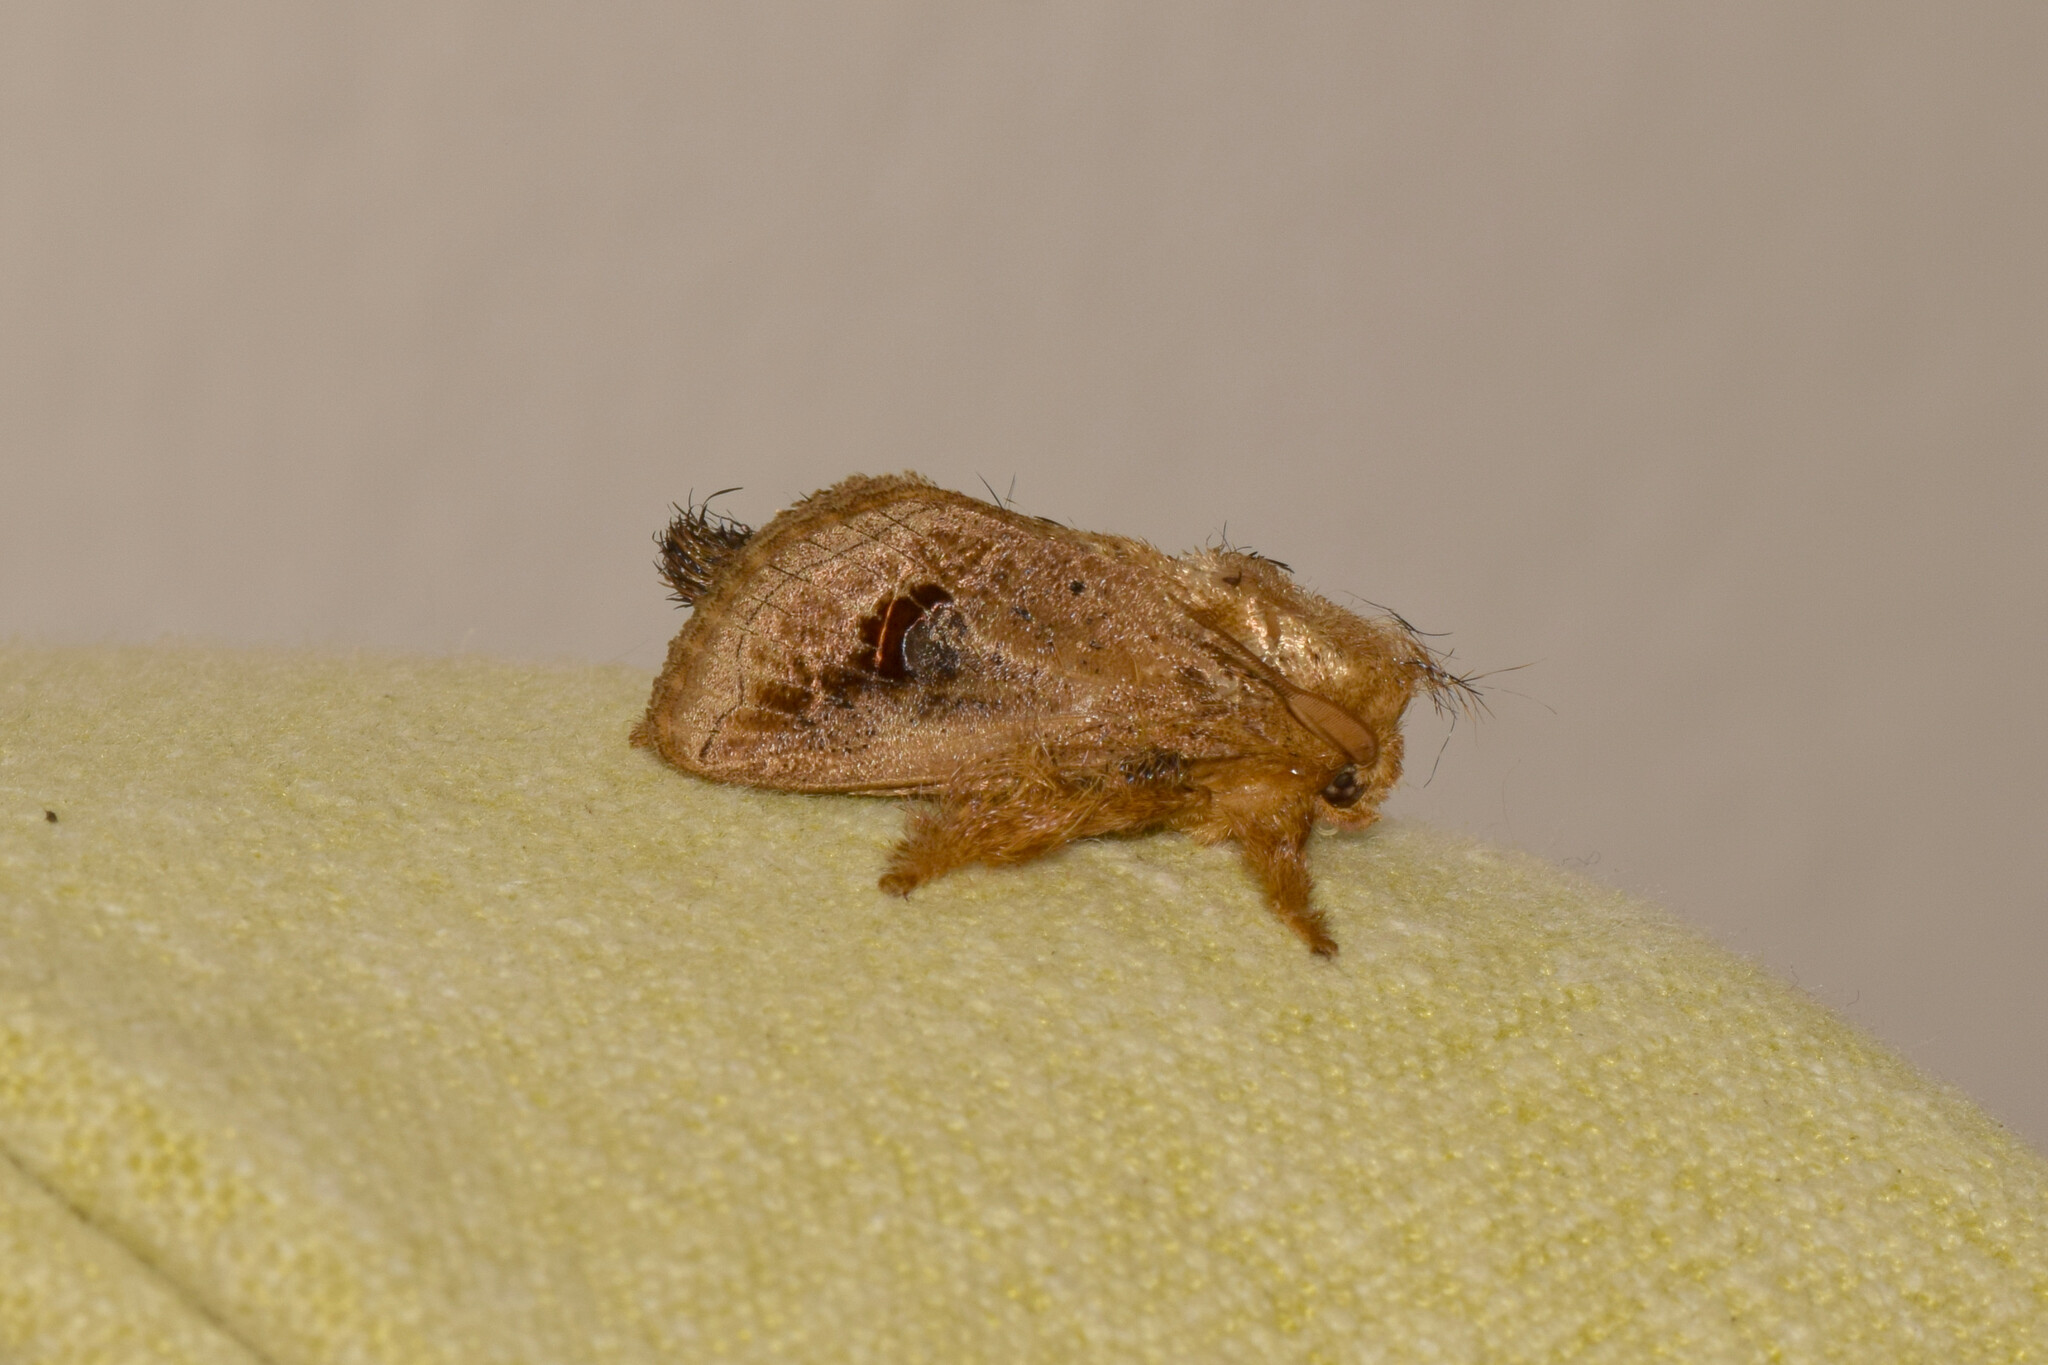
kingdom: Animalia
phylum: Arthropoda
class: Insecta
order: Lepidoptera
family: Limacodidae
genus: Squamosa
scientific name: Squamosa ocellata
